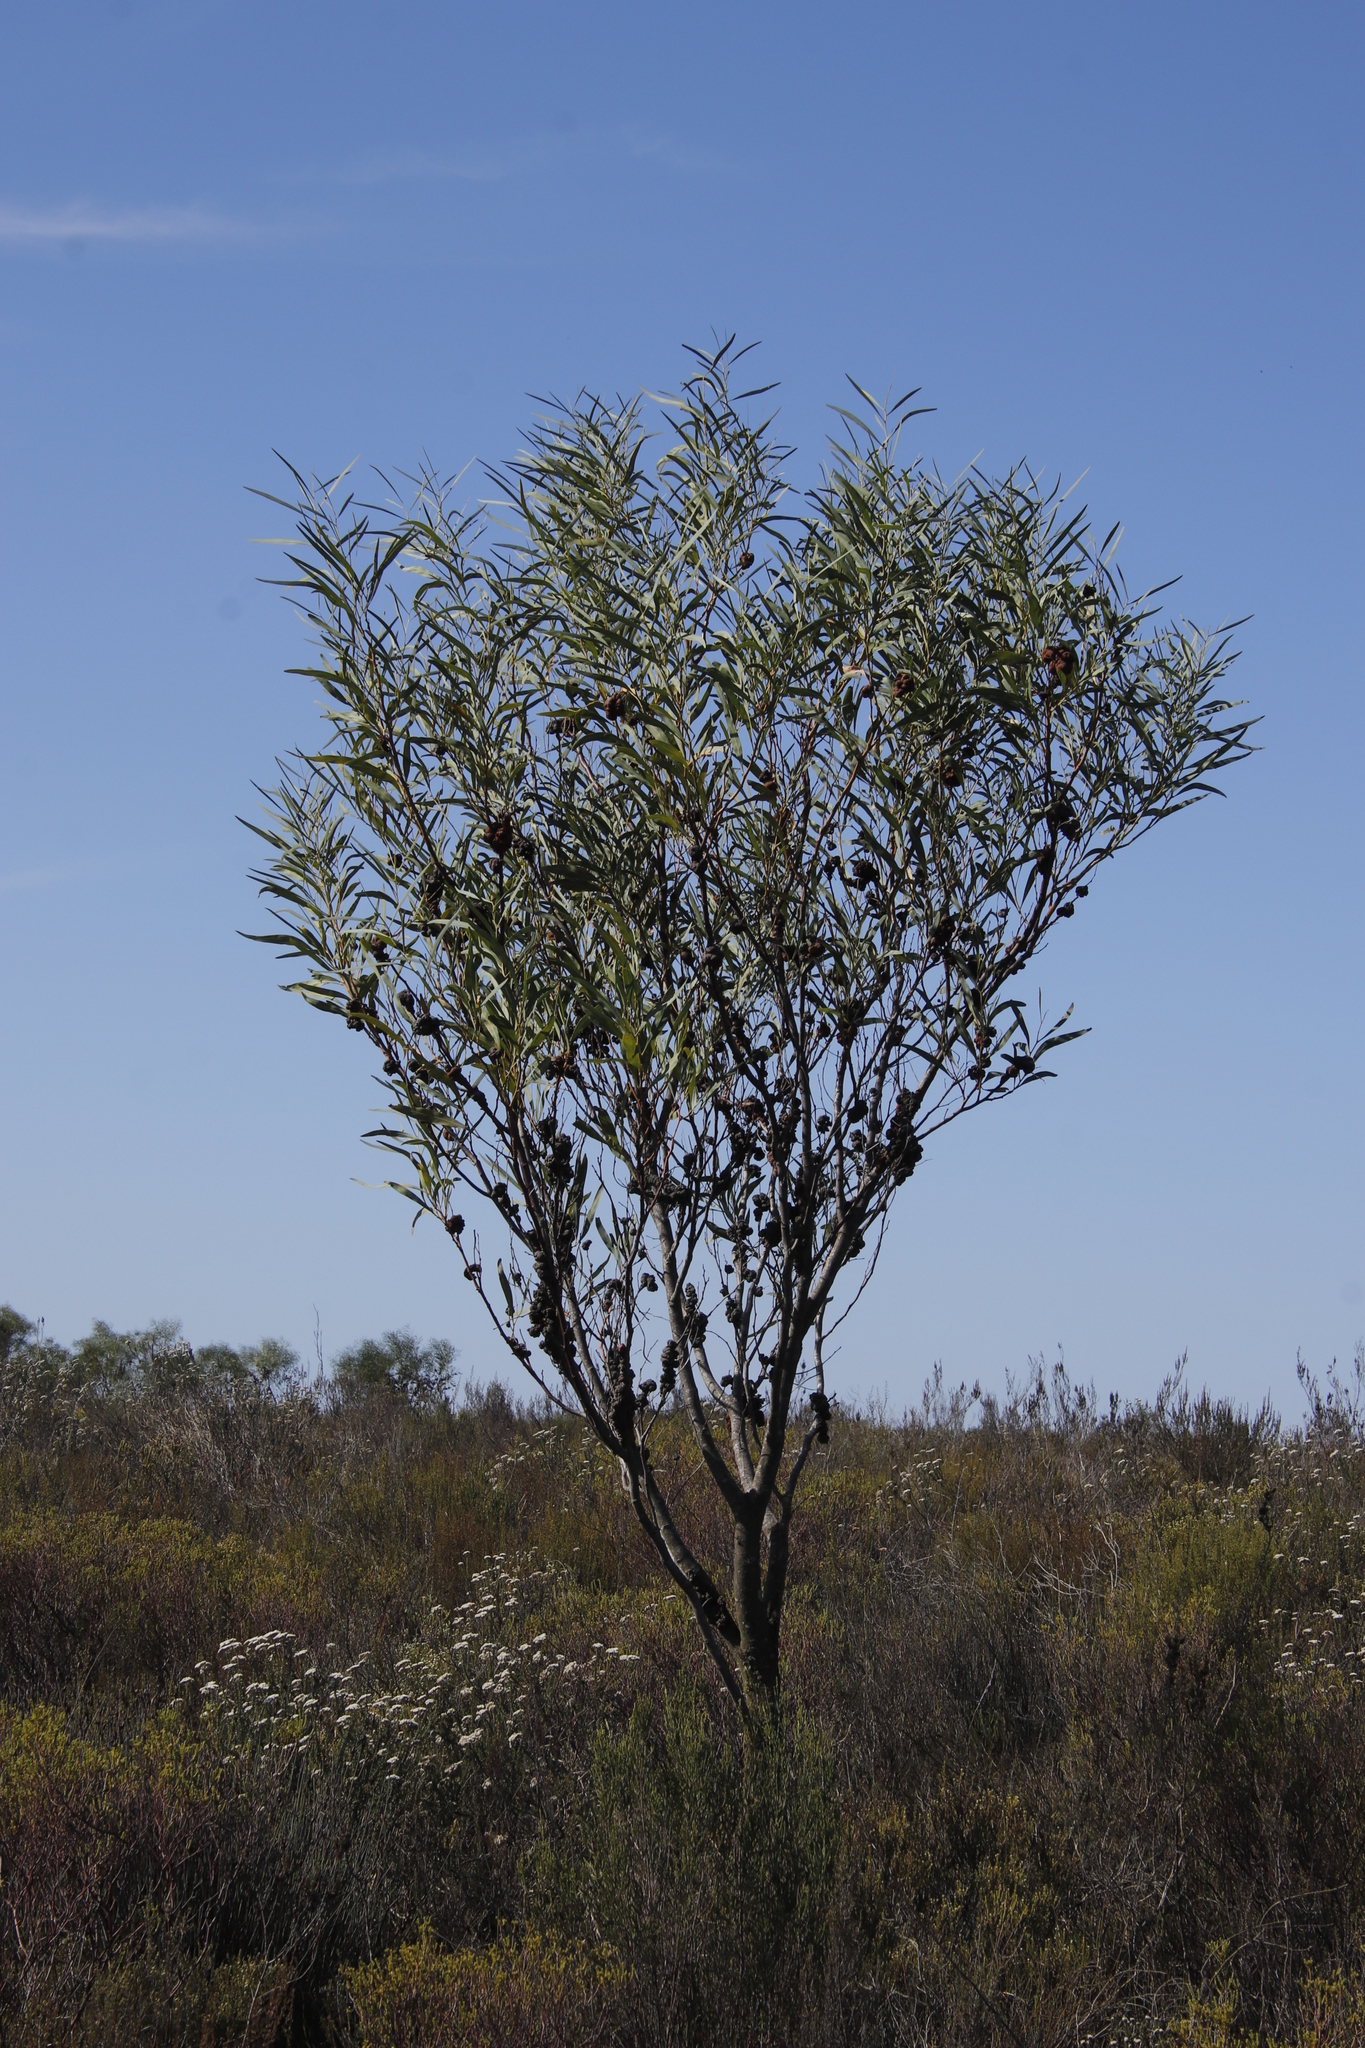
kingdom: Fungi
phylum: Basidiomycota
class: Pucciniomycetes
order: Pucciniales
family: Uromycladiaceae
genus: Uromycladium
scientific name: Uromycladium morrisii
